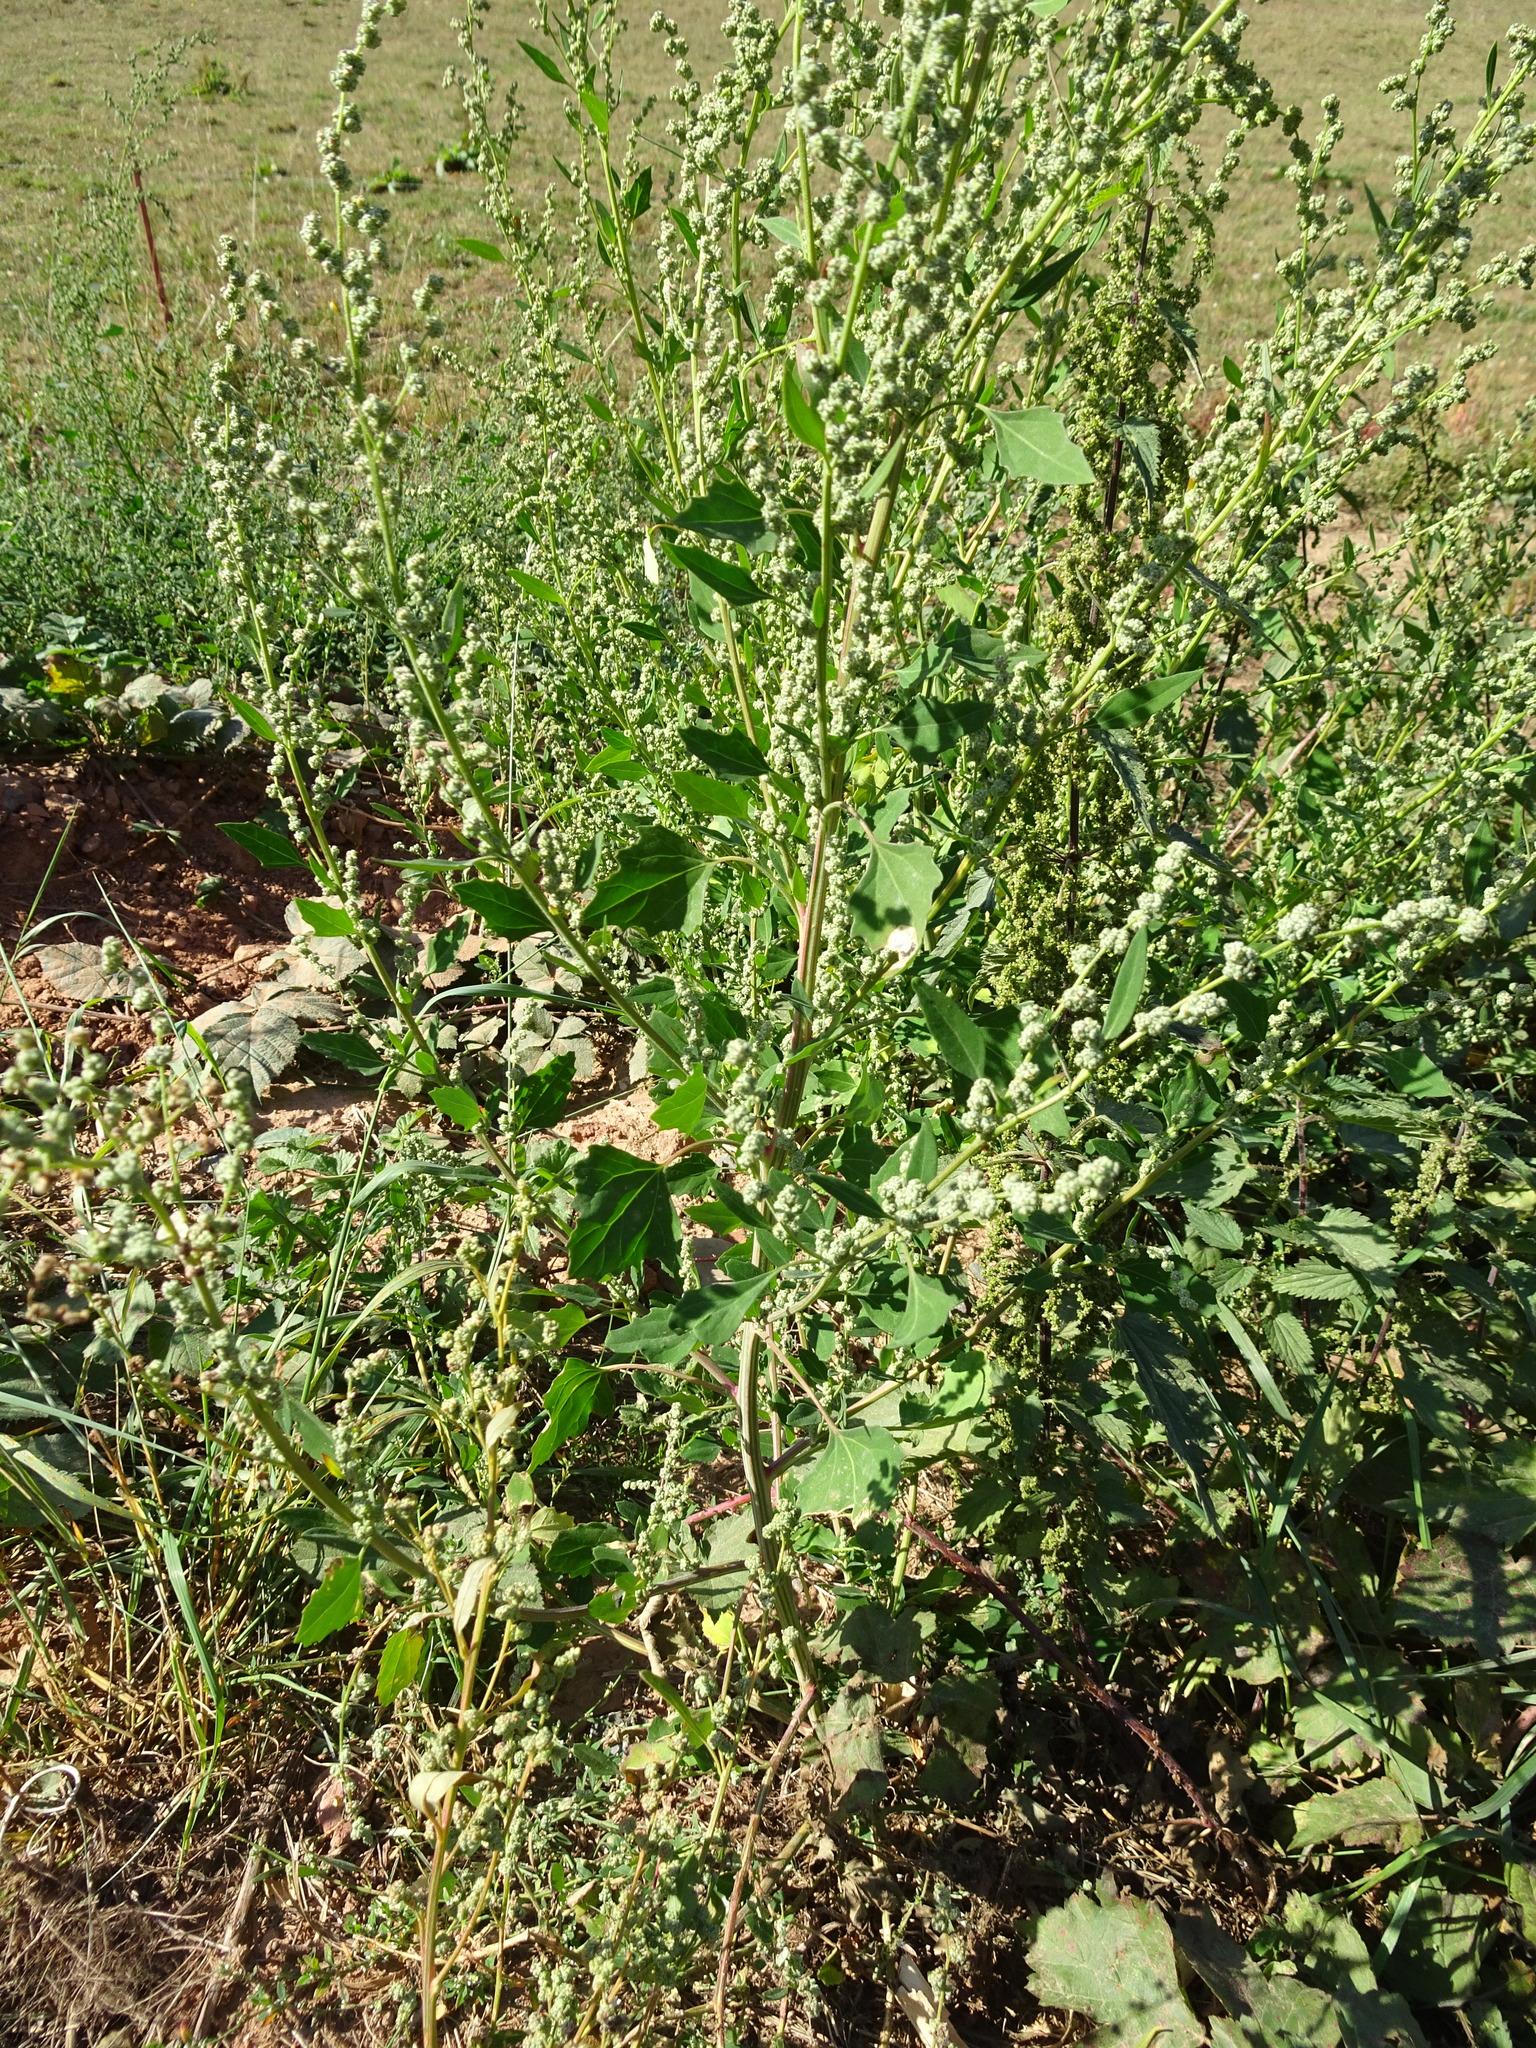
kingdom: Plantae
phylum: Tracheophyta
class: Magnoliopsida
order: Caryophyllales
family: Amaranthaceae
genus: Chenopodium
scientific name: Chenopodium album
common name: Fat-hen
